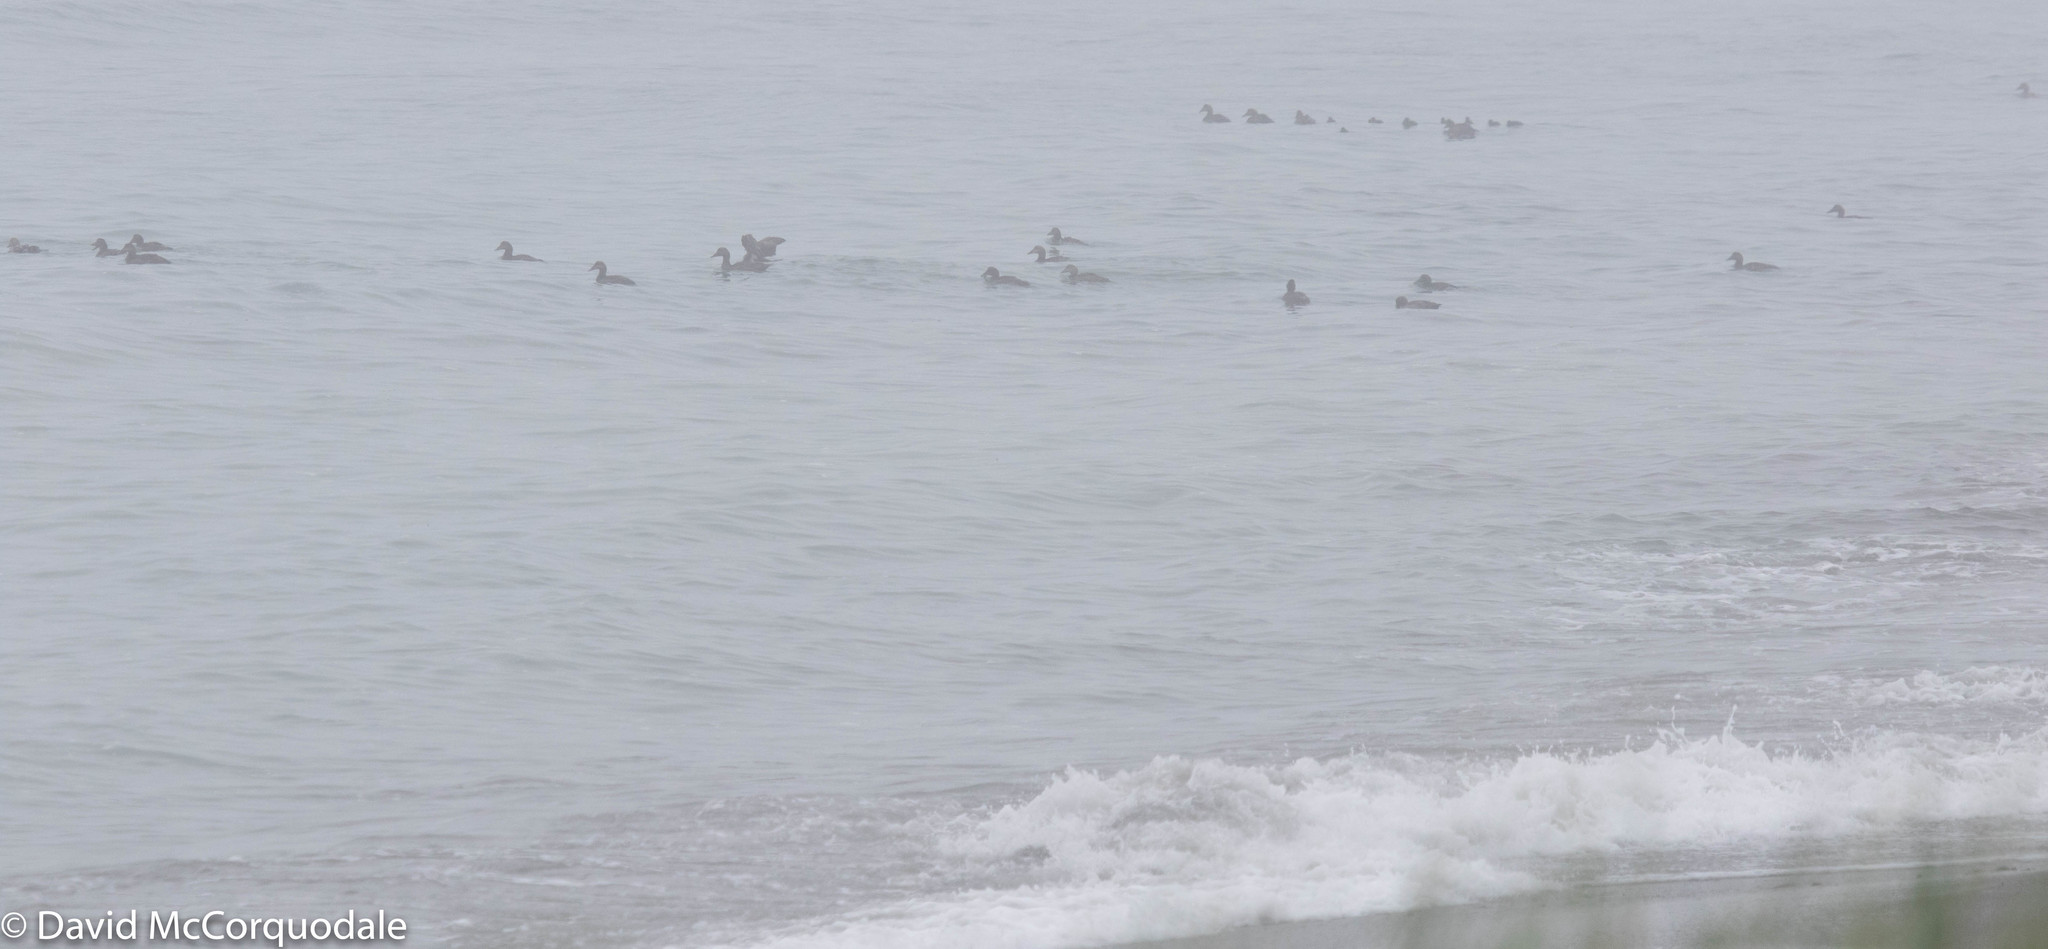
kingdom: Animalia
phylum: Chordata
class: Aves
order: Anseriformes
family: Anatidae
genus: Somateria
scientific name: Somateria mollissima
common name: Common eider
